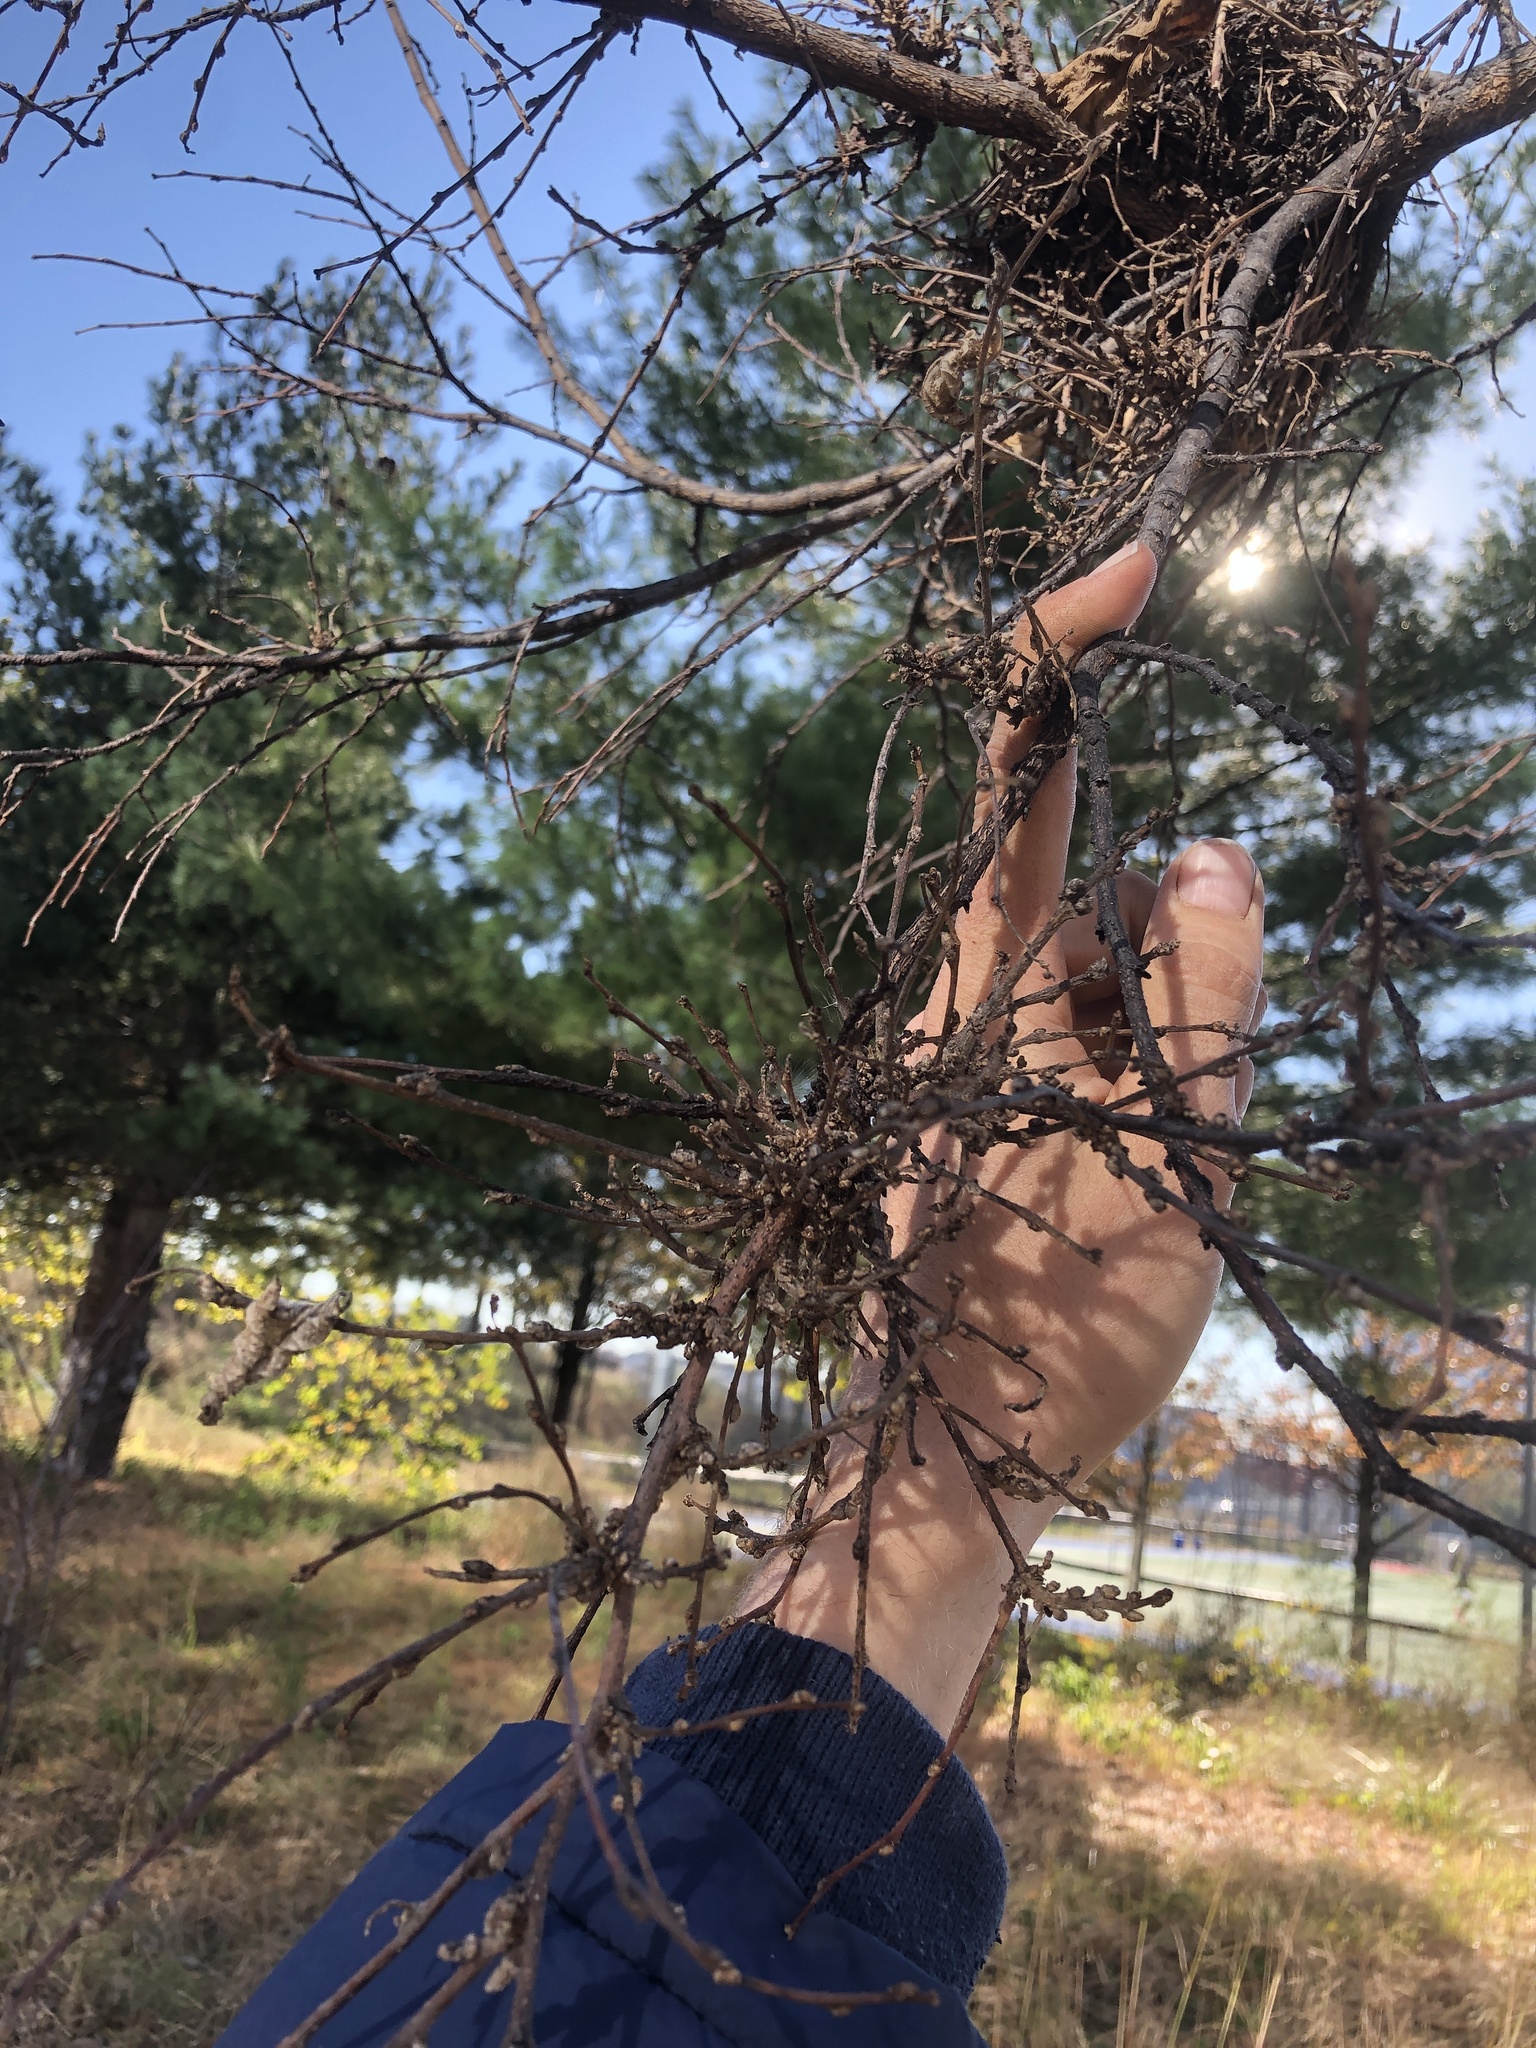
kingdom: Animalia
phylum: Arthropoda
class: Arachnida
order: Trombidiformes
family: Eriophyidae
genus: Aceria
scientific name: Aceria
